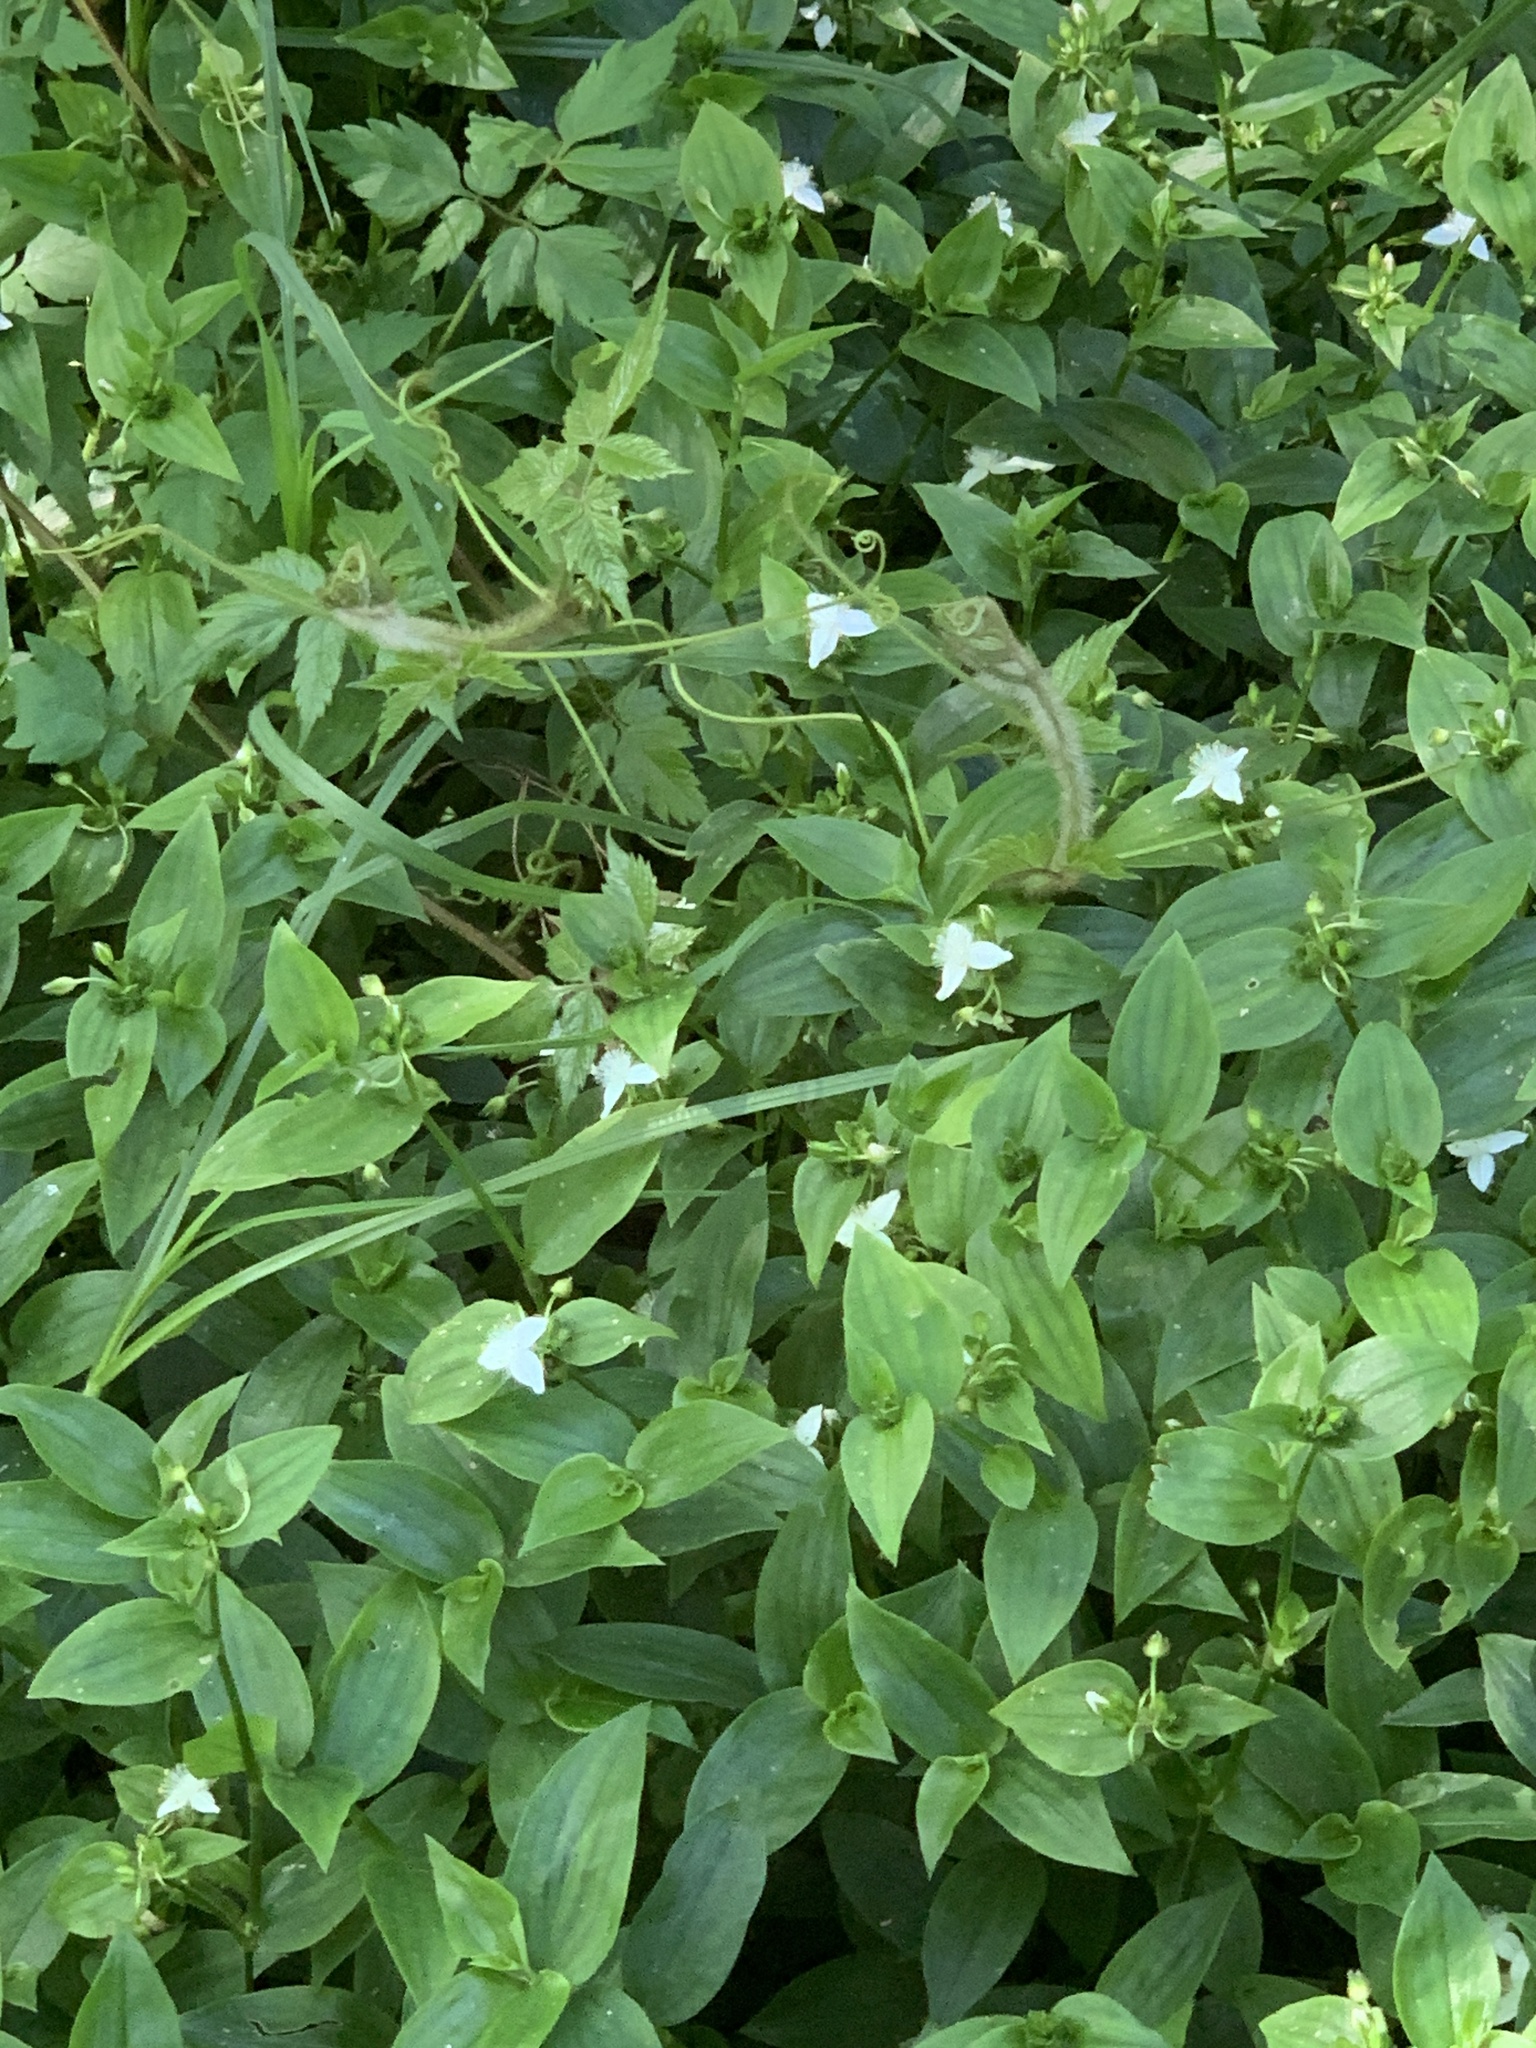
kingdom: Plantae
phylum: Tracheophyta
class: Liliopsida
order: Commelinales
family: Commelinaceae
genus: Tradescantia
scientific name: Tradescantia fluminensis
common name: Wandering-jew
